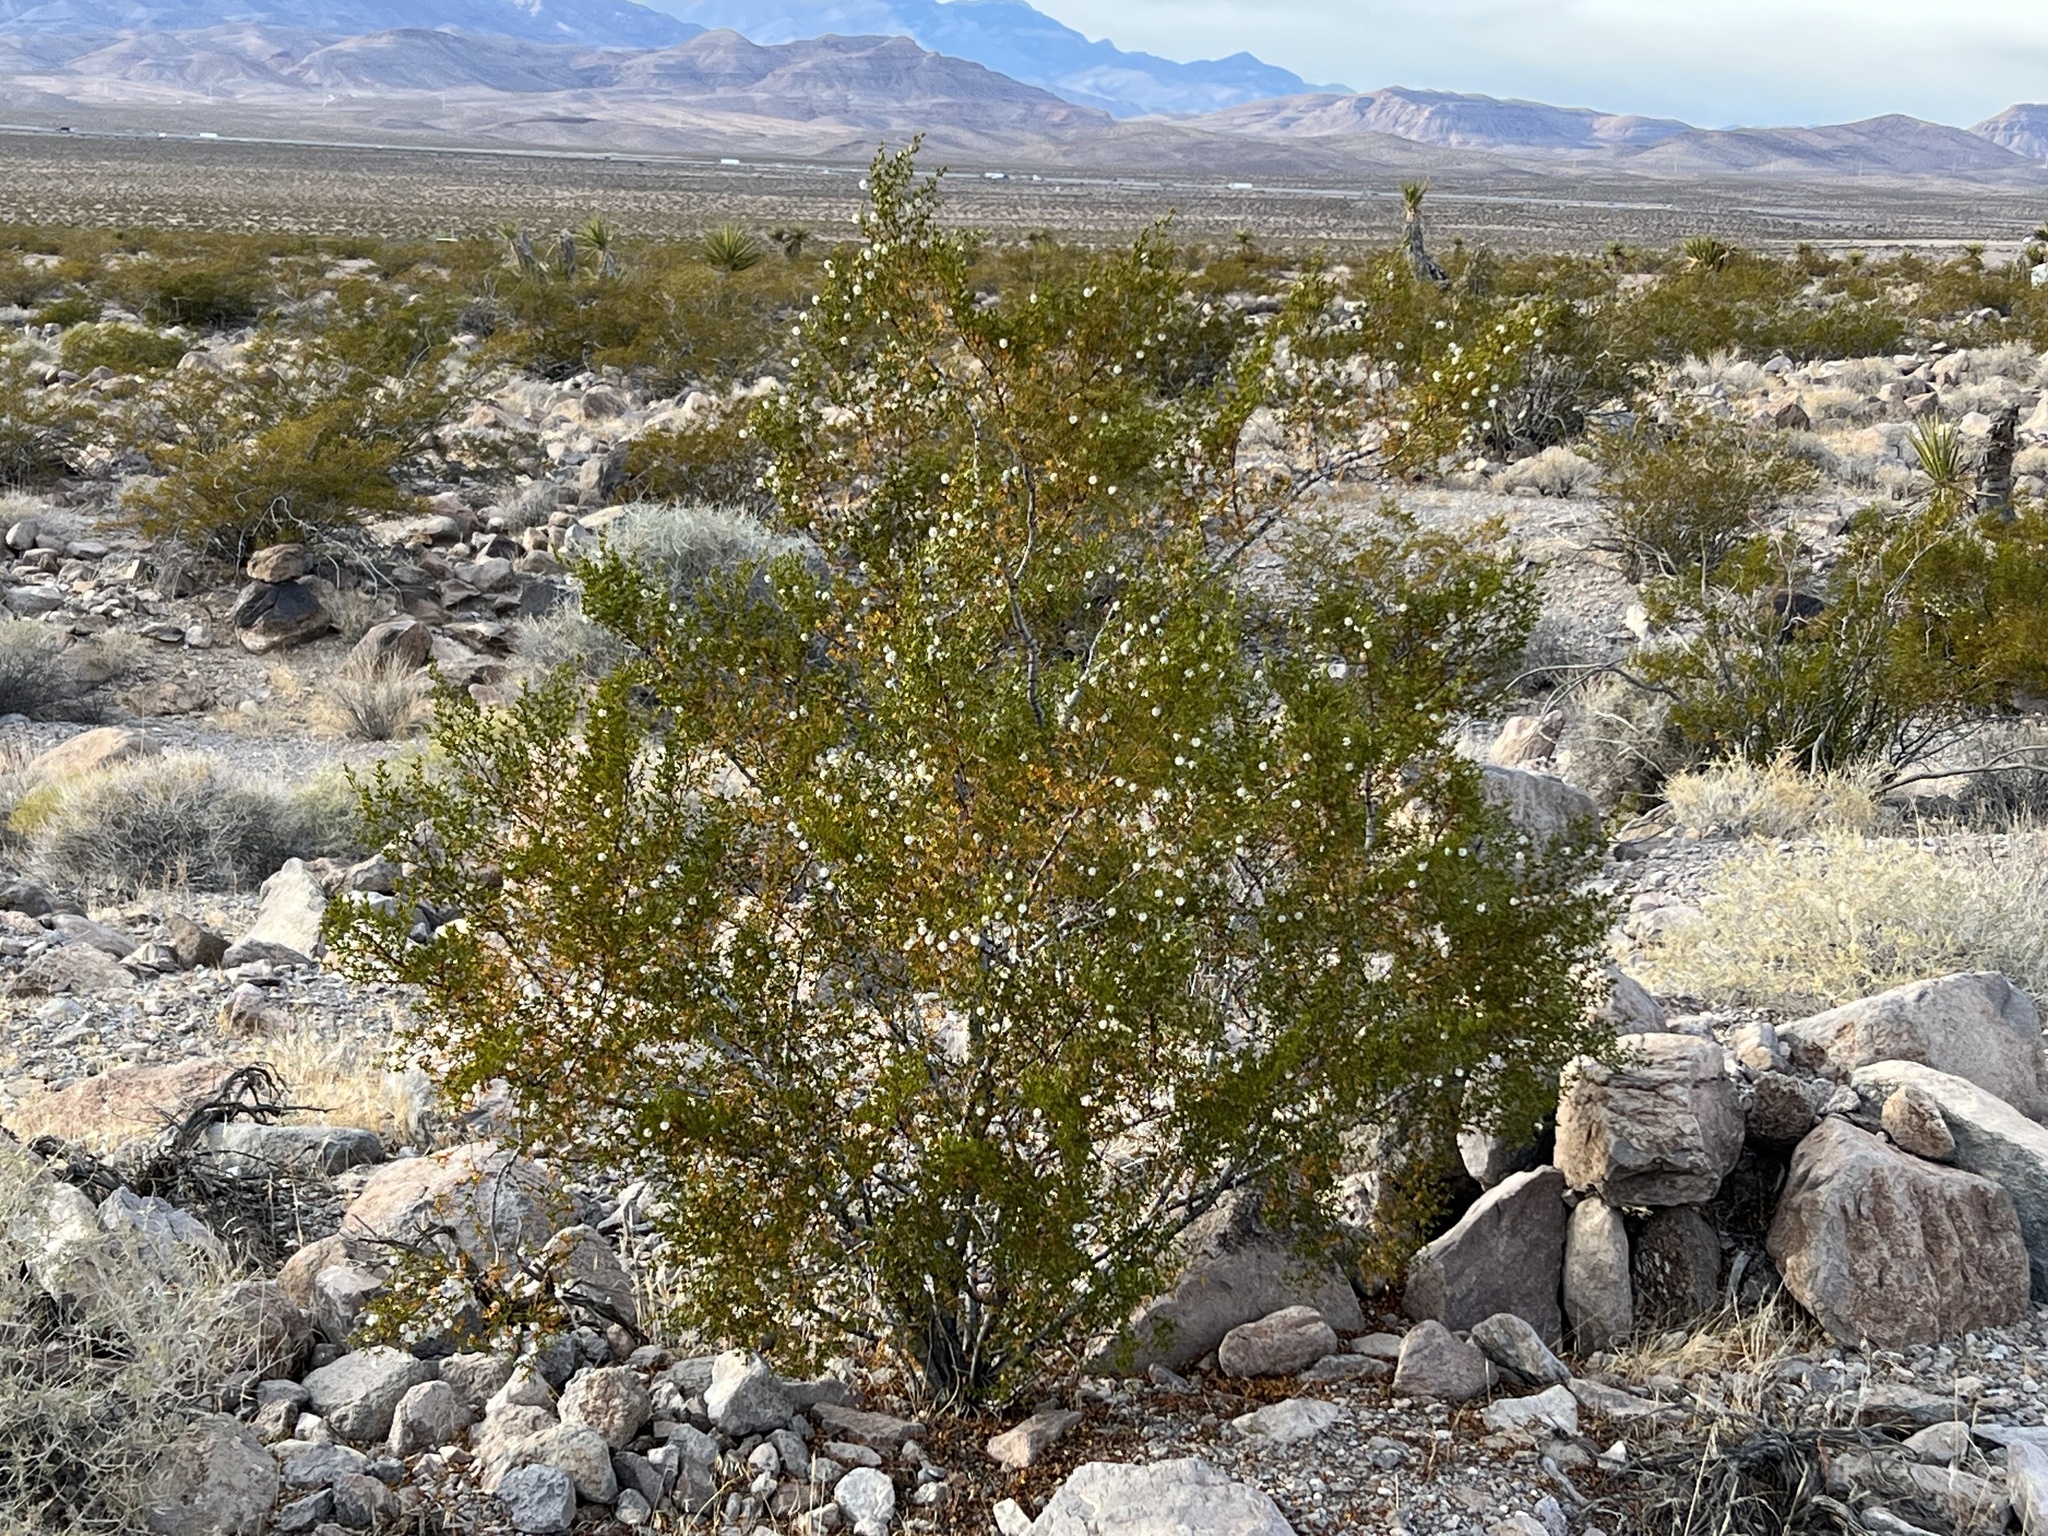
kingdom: Plantae
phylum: Tracheophyta
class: Magnoliopsida
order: Zygophyllales
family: Zygophyllaceae
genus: Larrea
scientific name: Larrea tridentata
